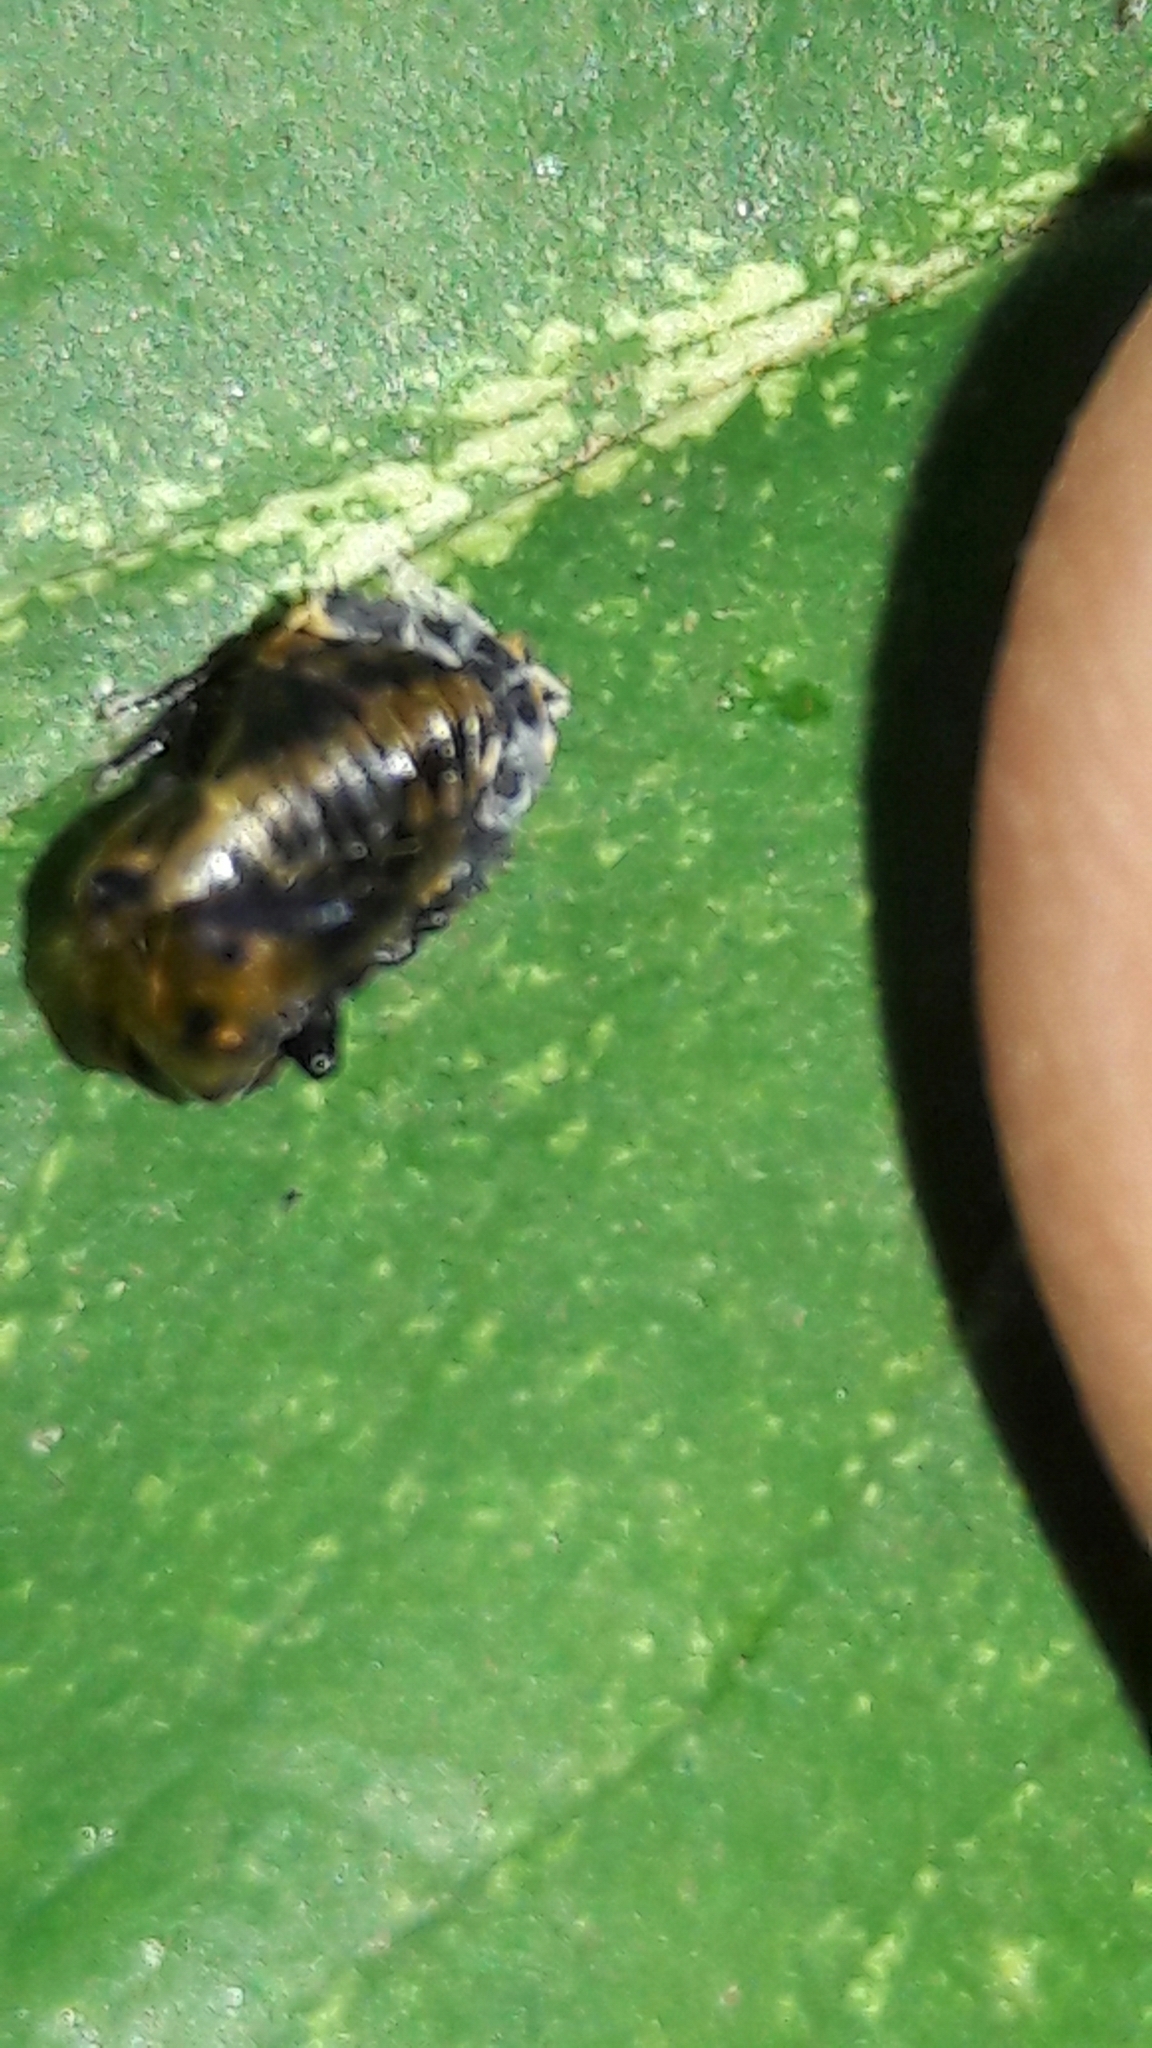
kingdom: Animalia
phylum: Arthropoda
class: Insecta
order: Coleoptera
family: Coccinellidae
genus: Hippodamia
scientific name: Hippodamia convergens
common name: Convergent lady beetle
